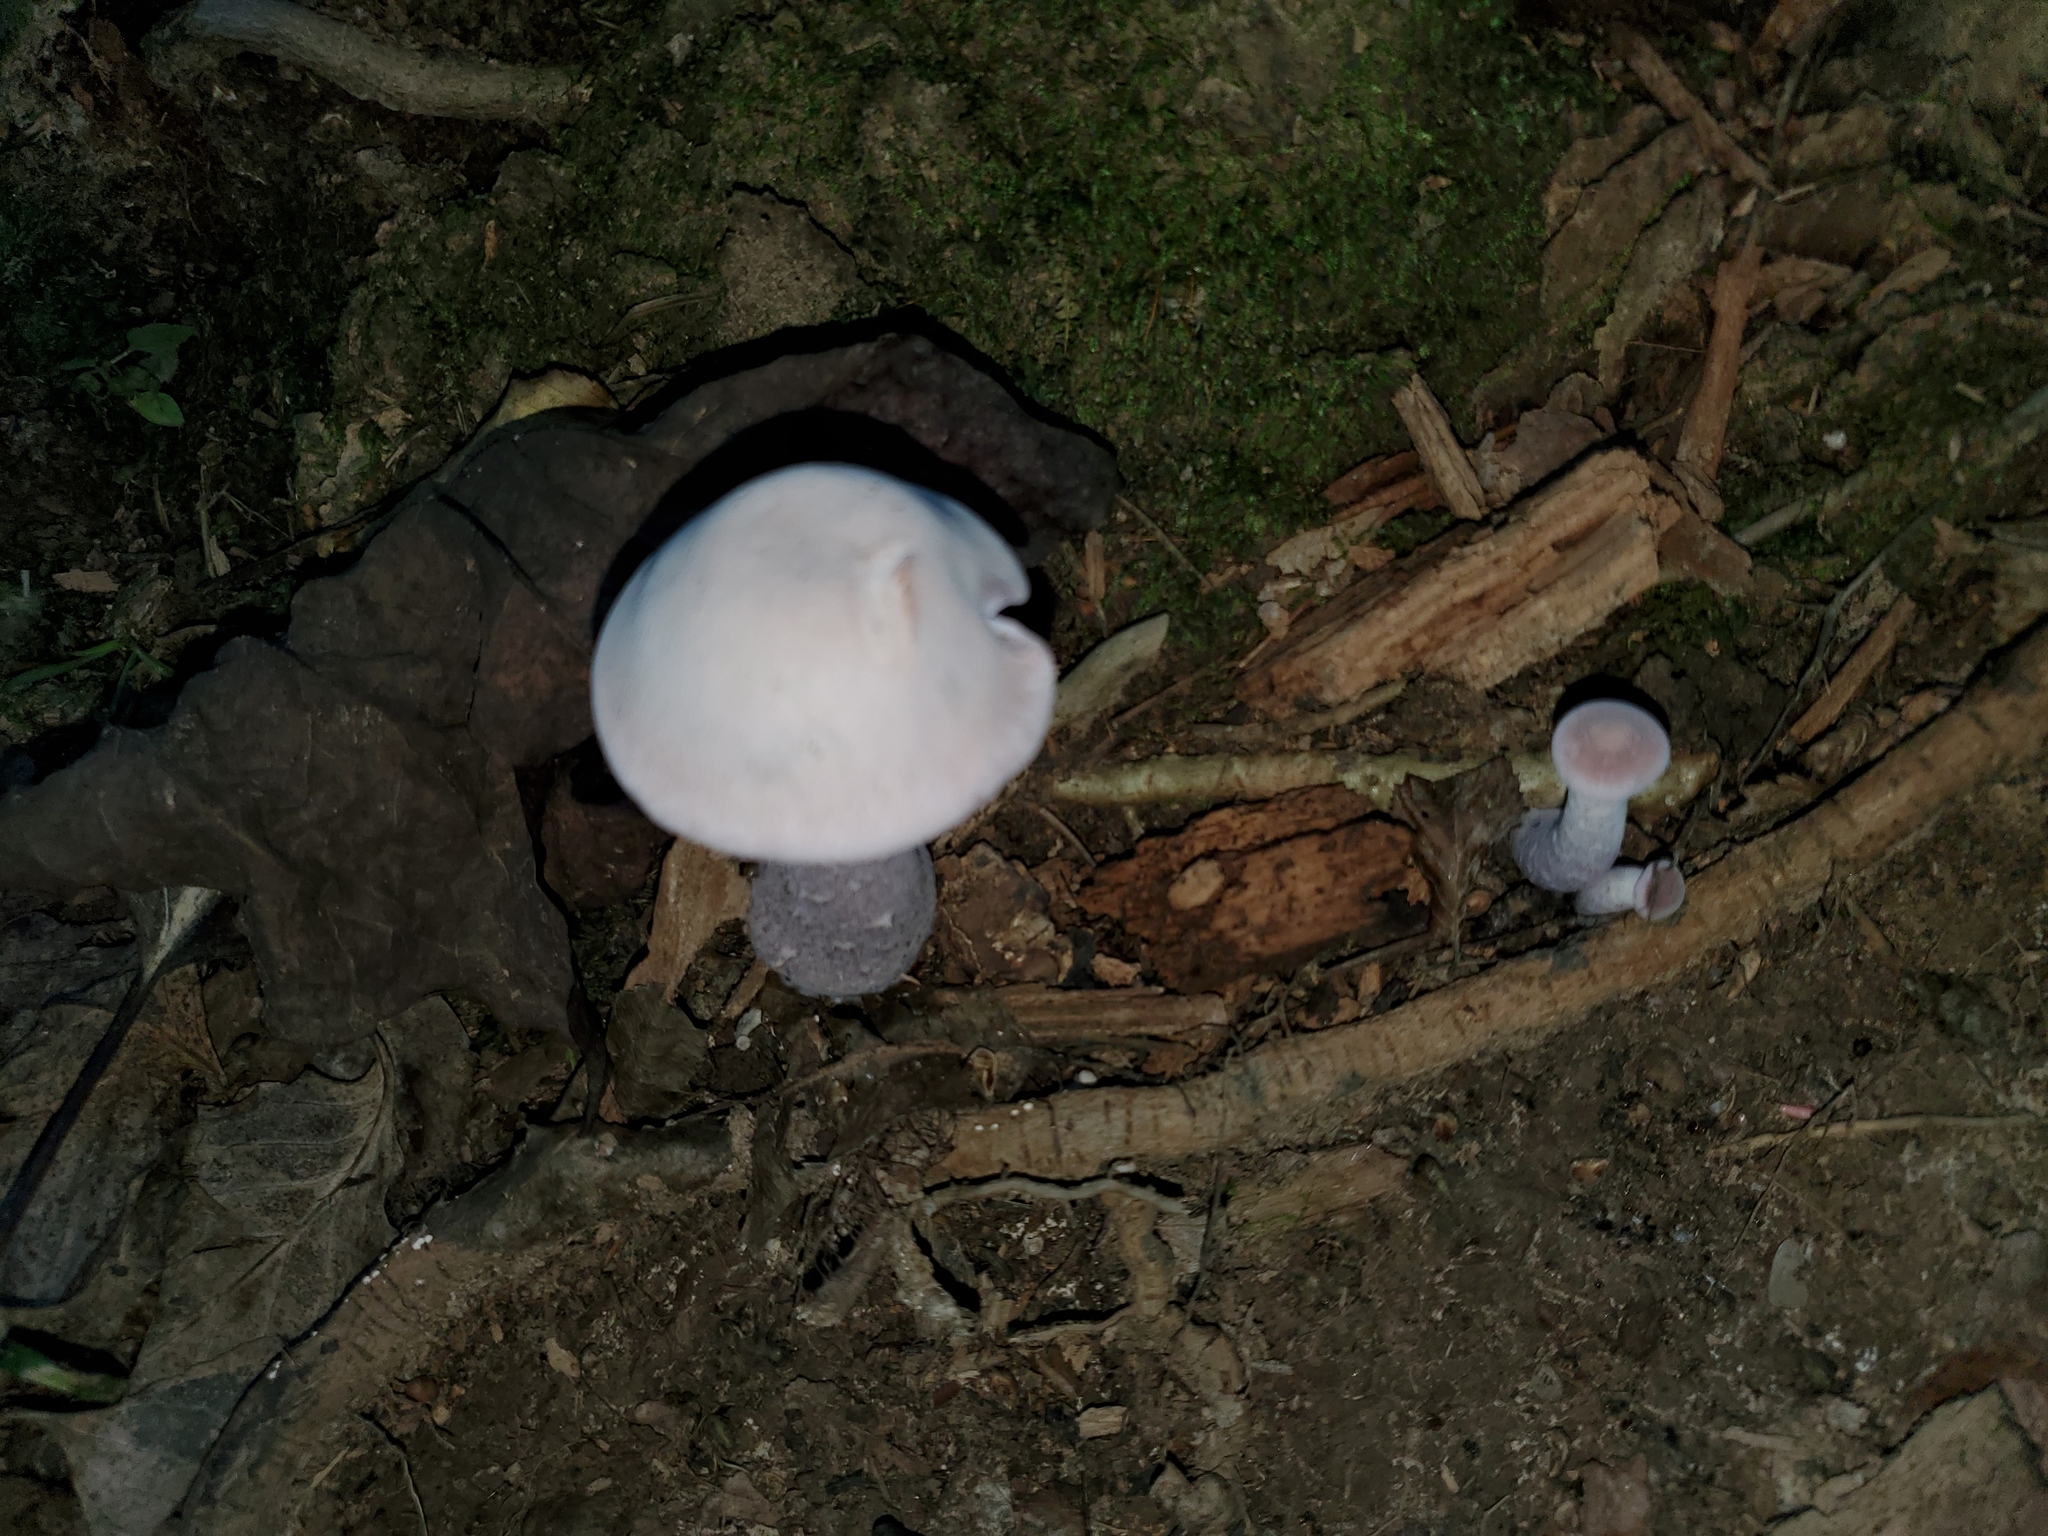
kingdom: Fungi
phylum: Basidiomycota
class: Agaricomycetes
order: Agaricales
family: Hydnangiaceae
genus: Laccaria
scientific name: Laccaria ochropurpurea
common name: Purple laccaria
